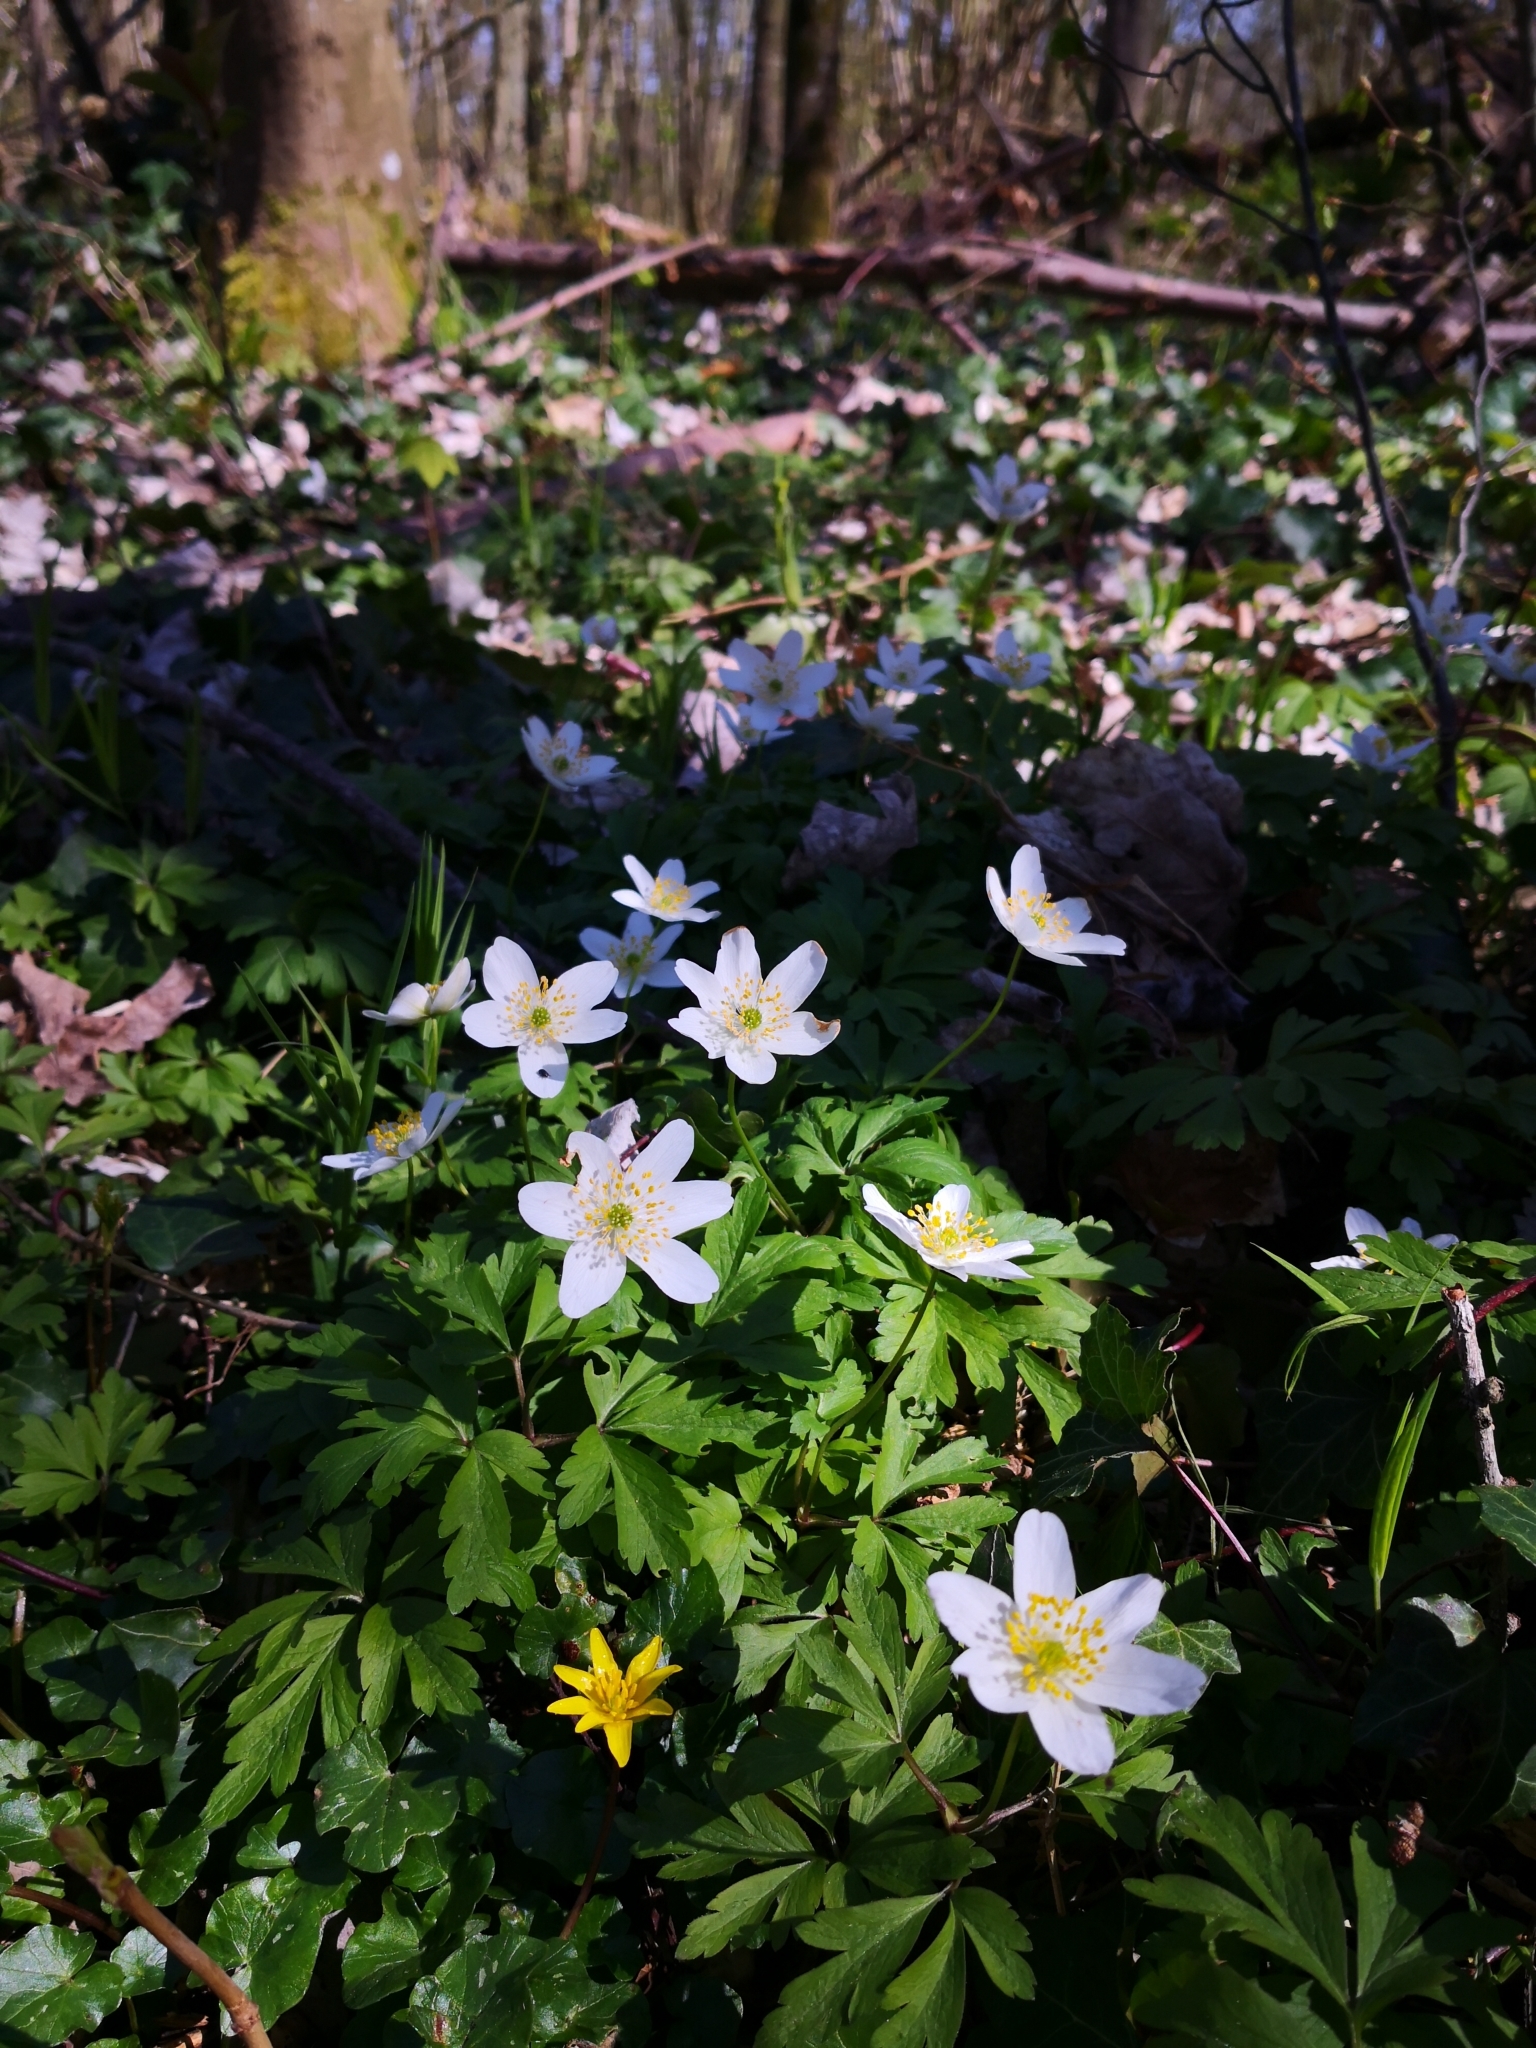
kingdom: Plantae
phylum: Tracheophyta
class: Magnoliopsida
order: Ranunculales
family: Ranunculaceae
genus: Anemone
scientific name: Anemone nemorosa
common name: Wood anemone
